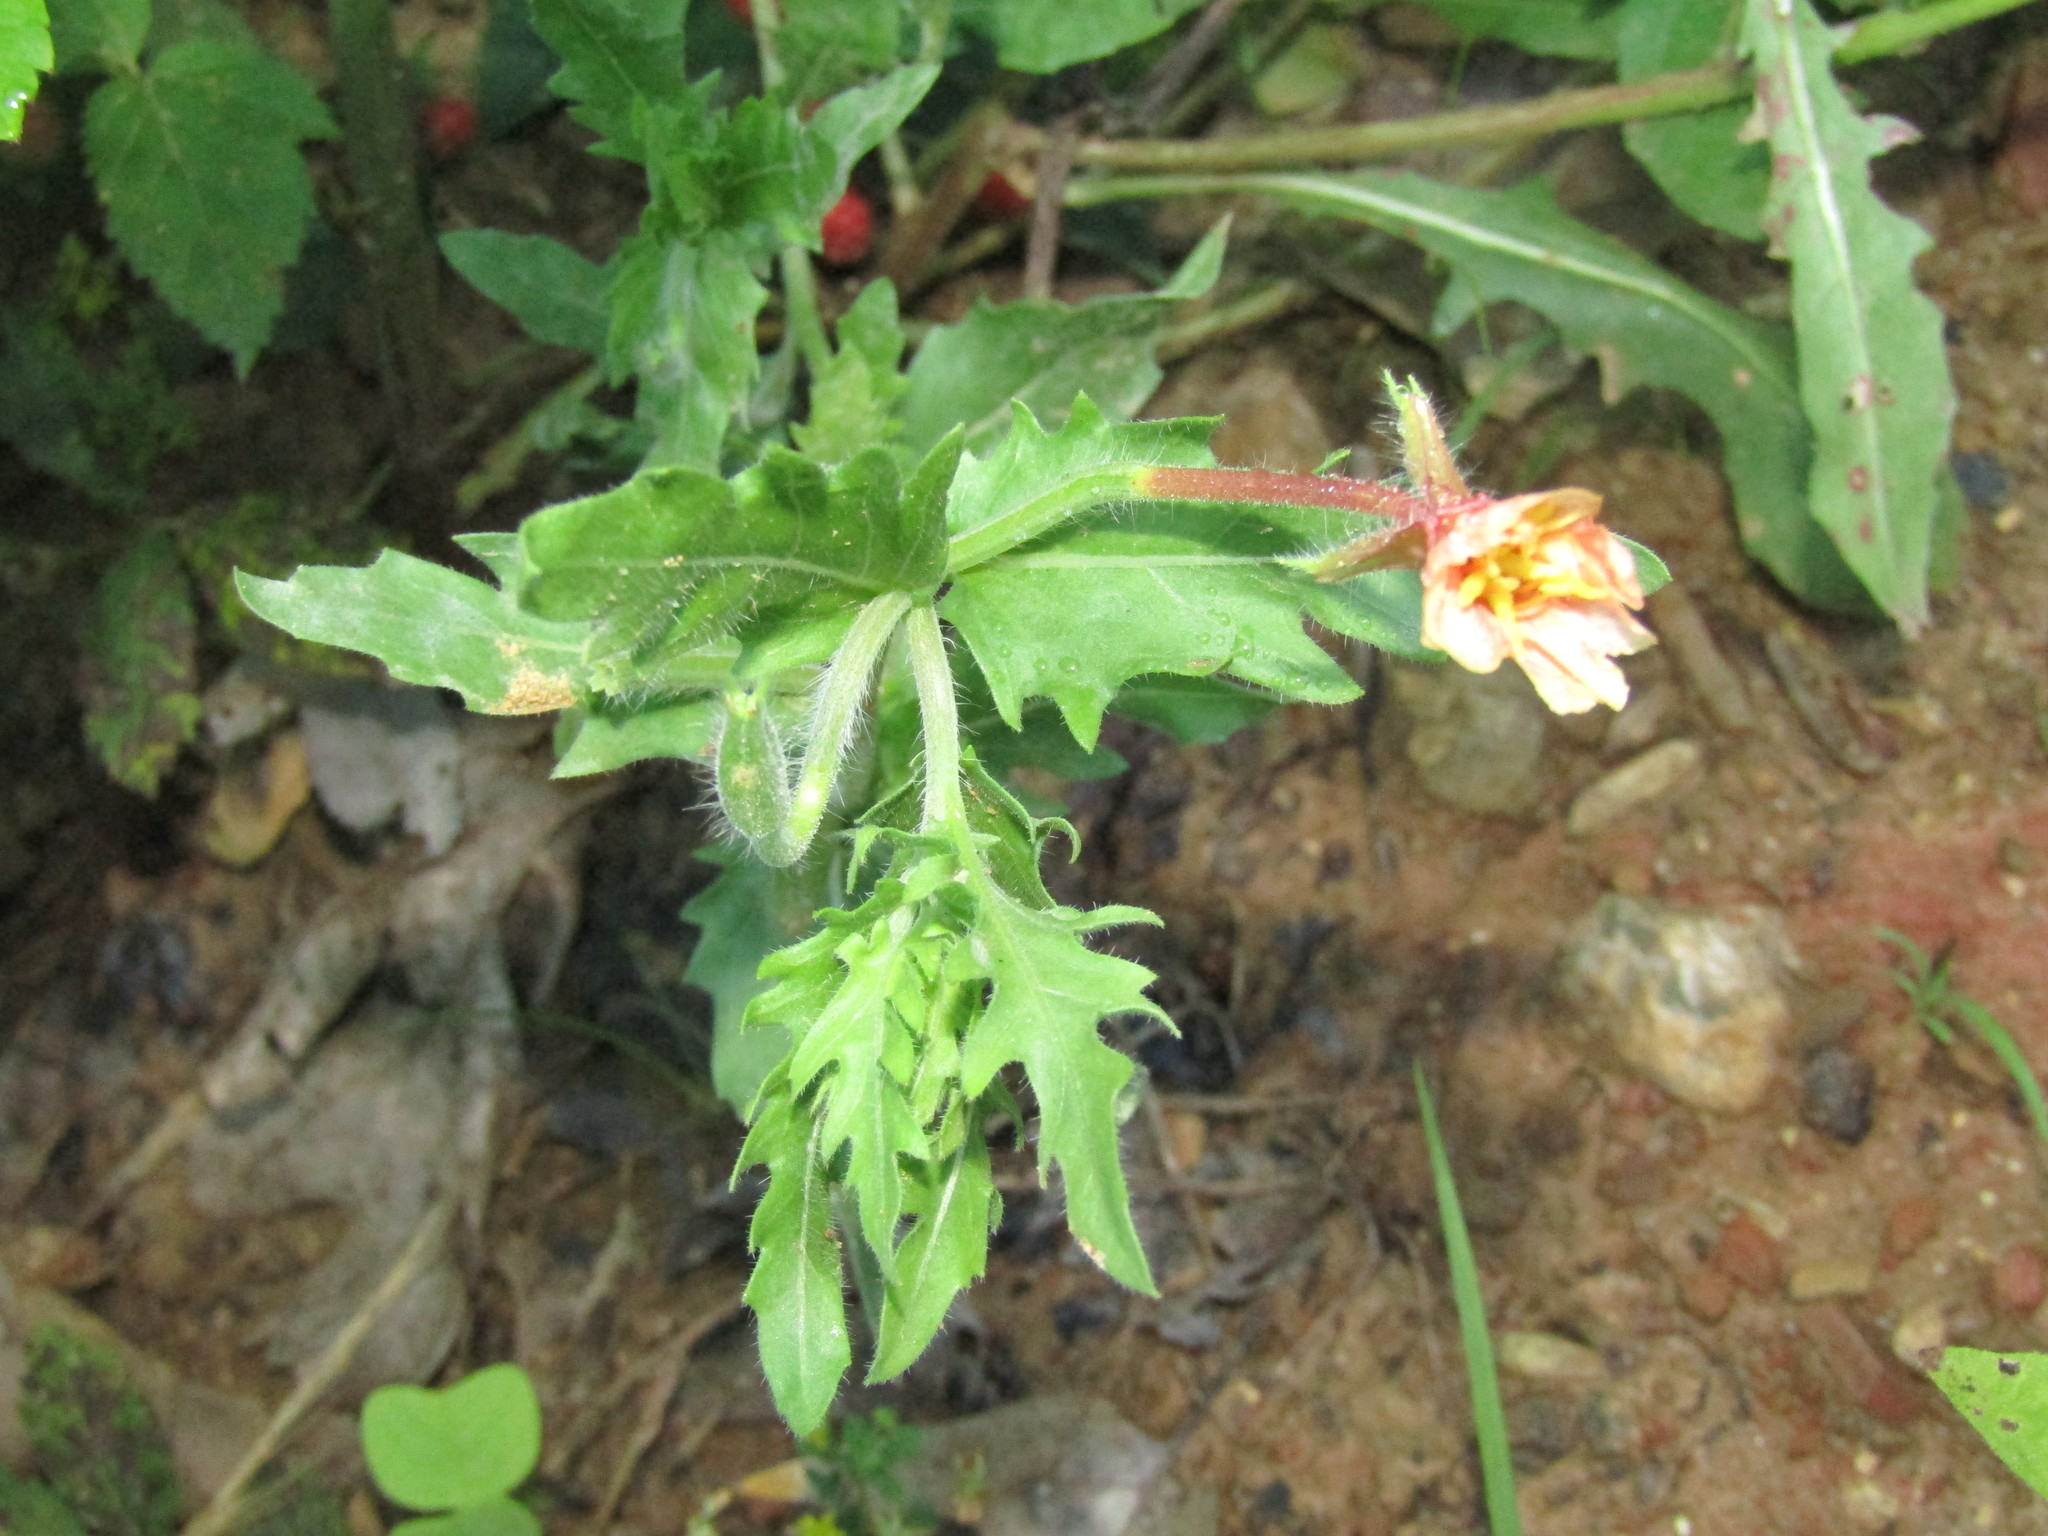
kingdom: Plantae
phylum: Tracheophyta
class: Magnoliopsida
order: Myrtales
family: Onagraceae
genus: Oenothera
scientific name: Oenothera laciniata
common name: Cut-leaved evening-primrose
